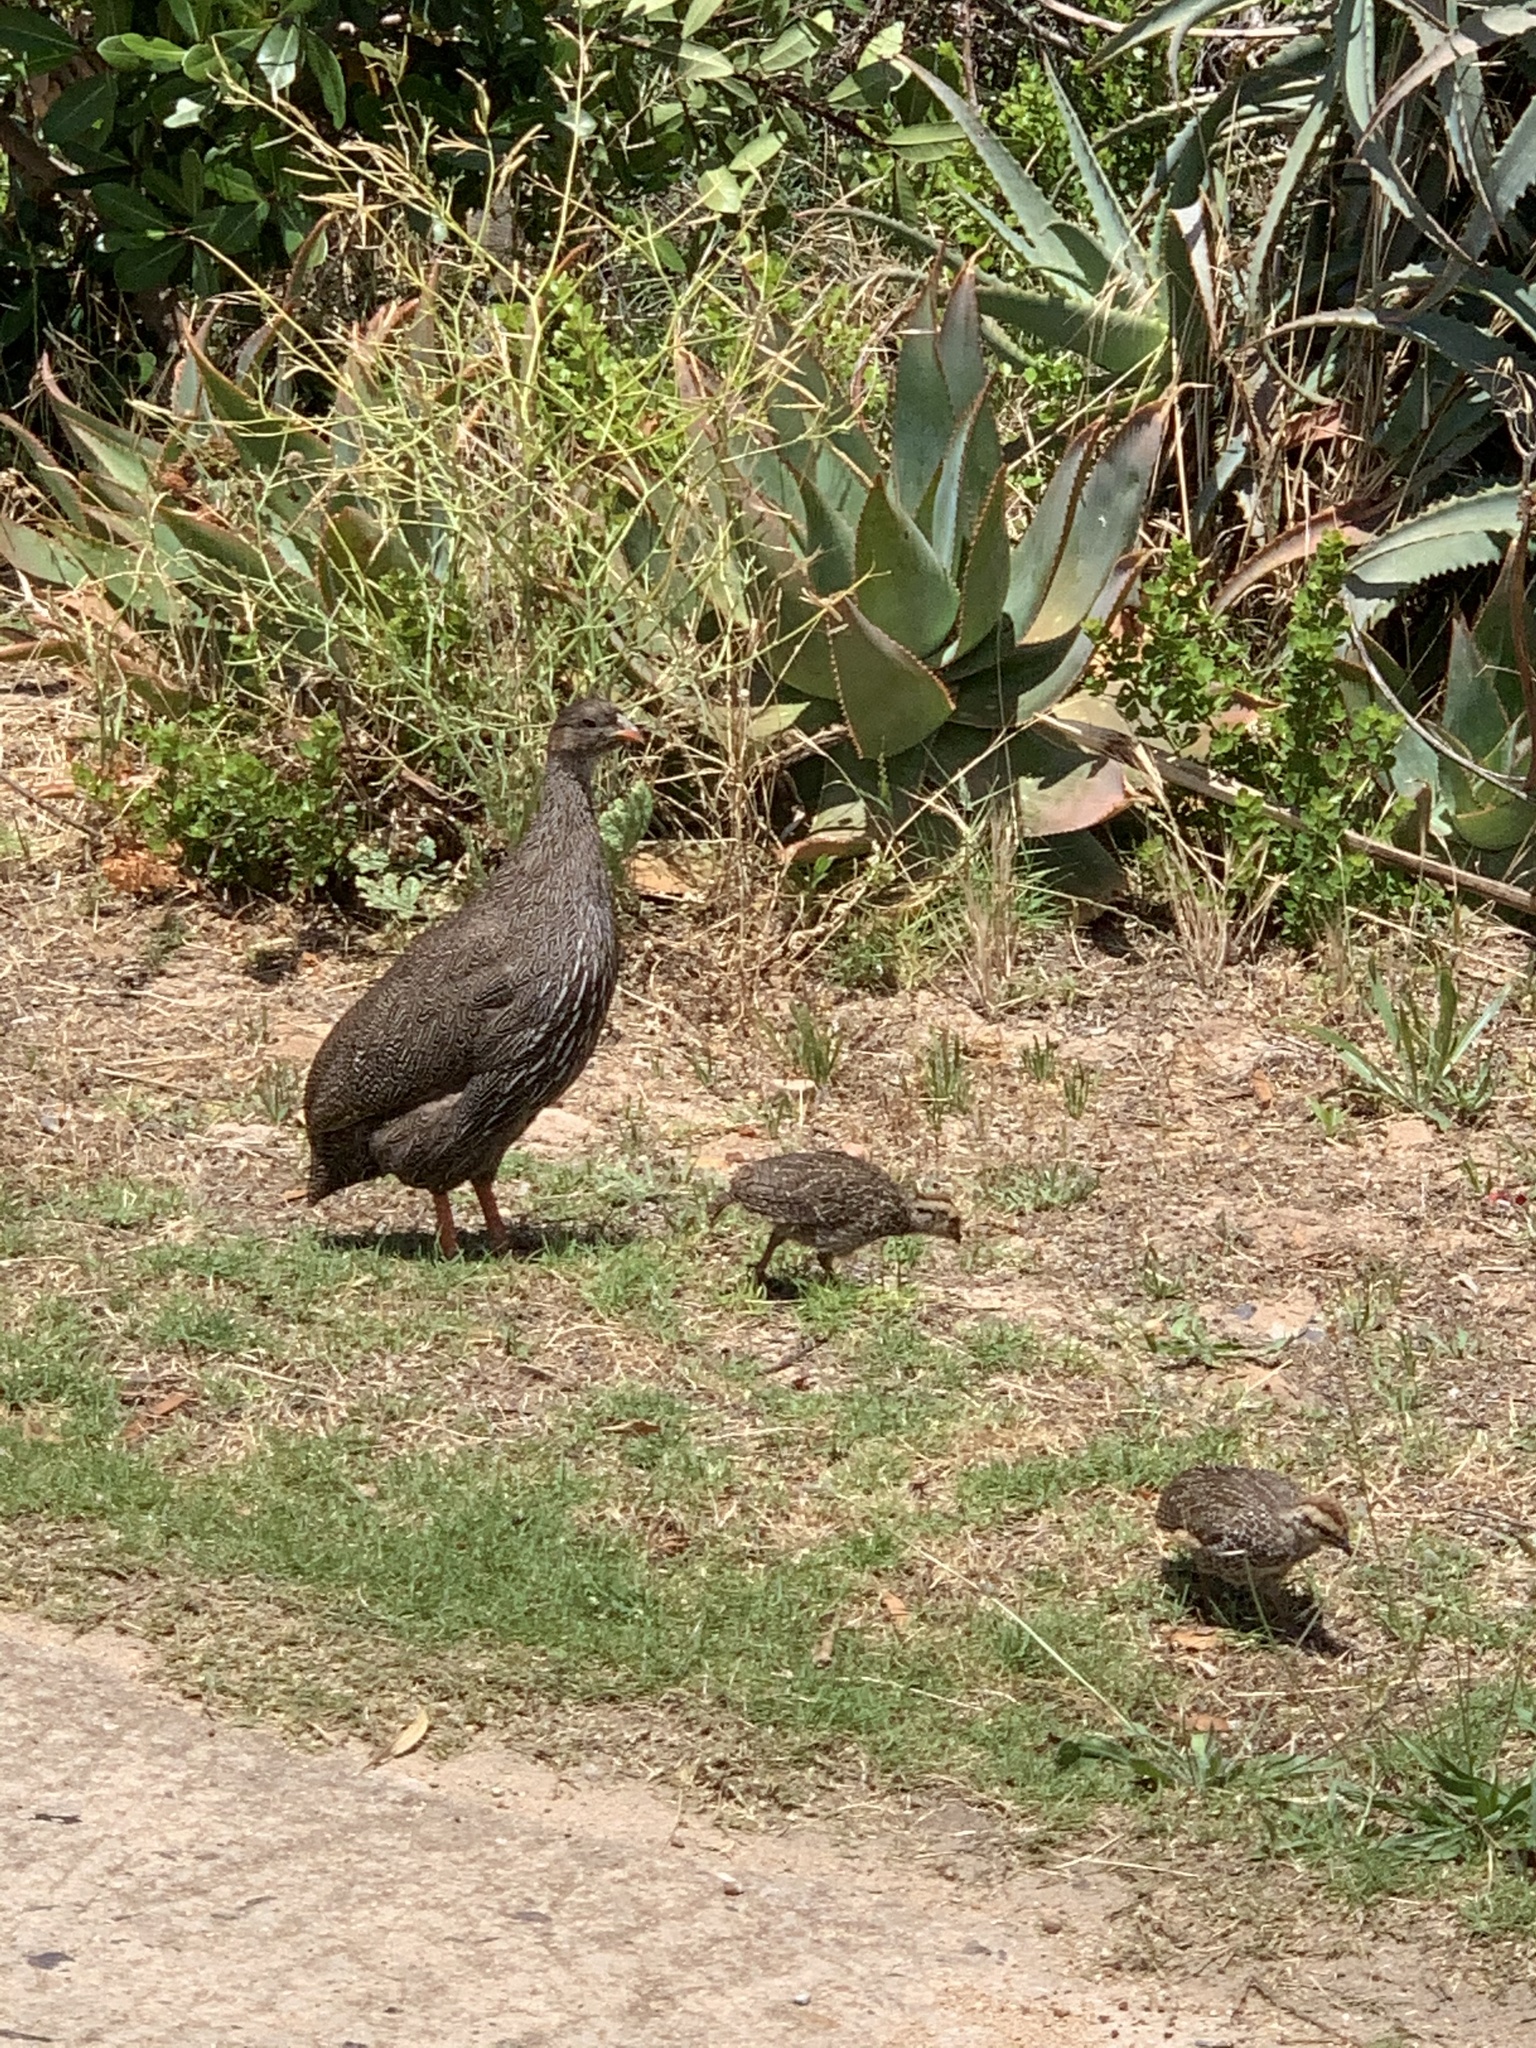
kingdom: Animalia
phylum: Chordata
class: Aves
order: Galliformes
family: Phasianidae
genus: Pternistis
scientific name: Pternistis capensis
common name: Cape spurfowl
